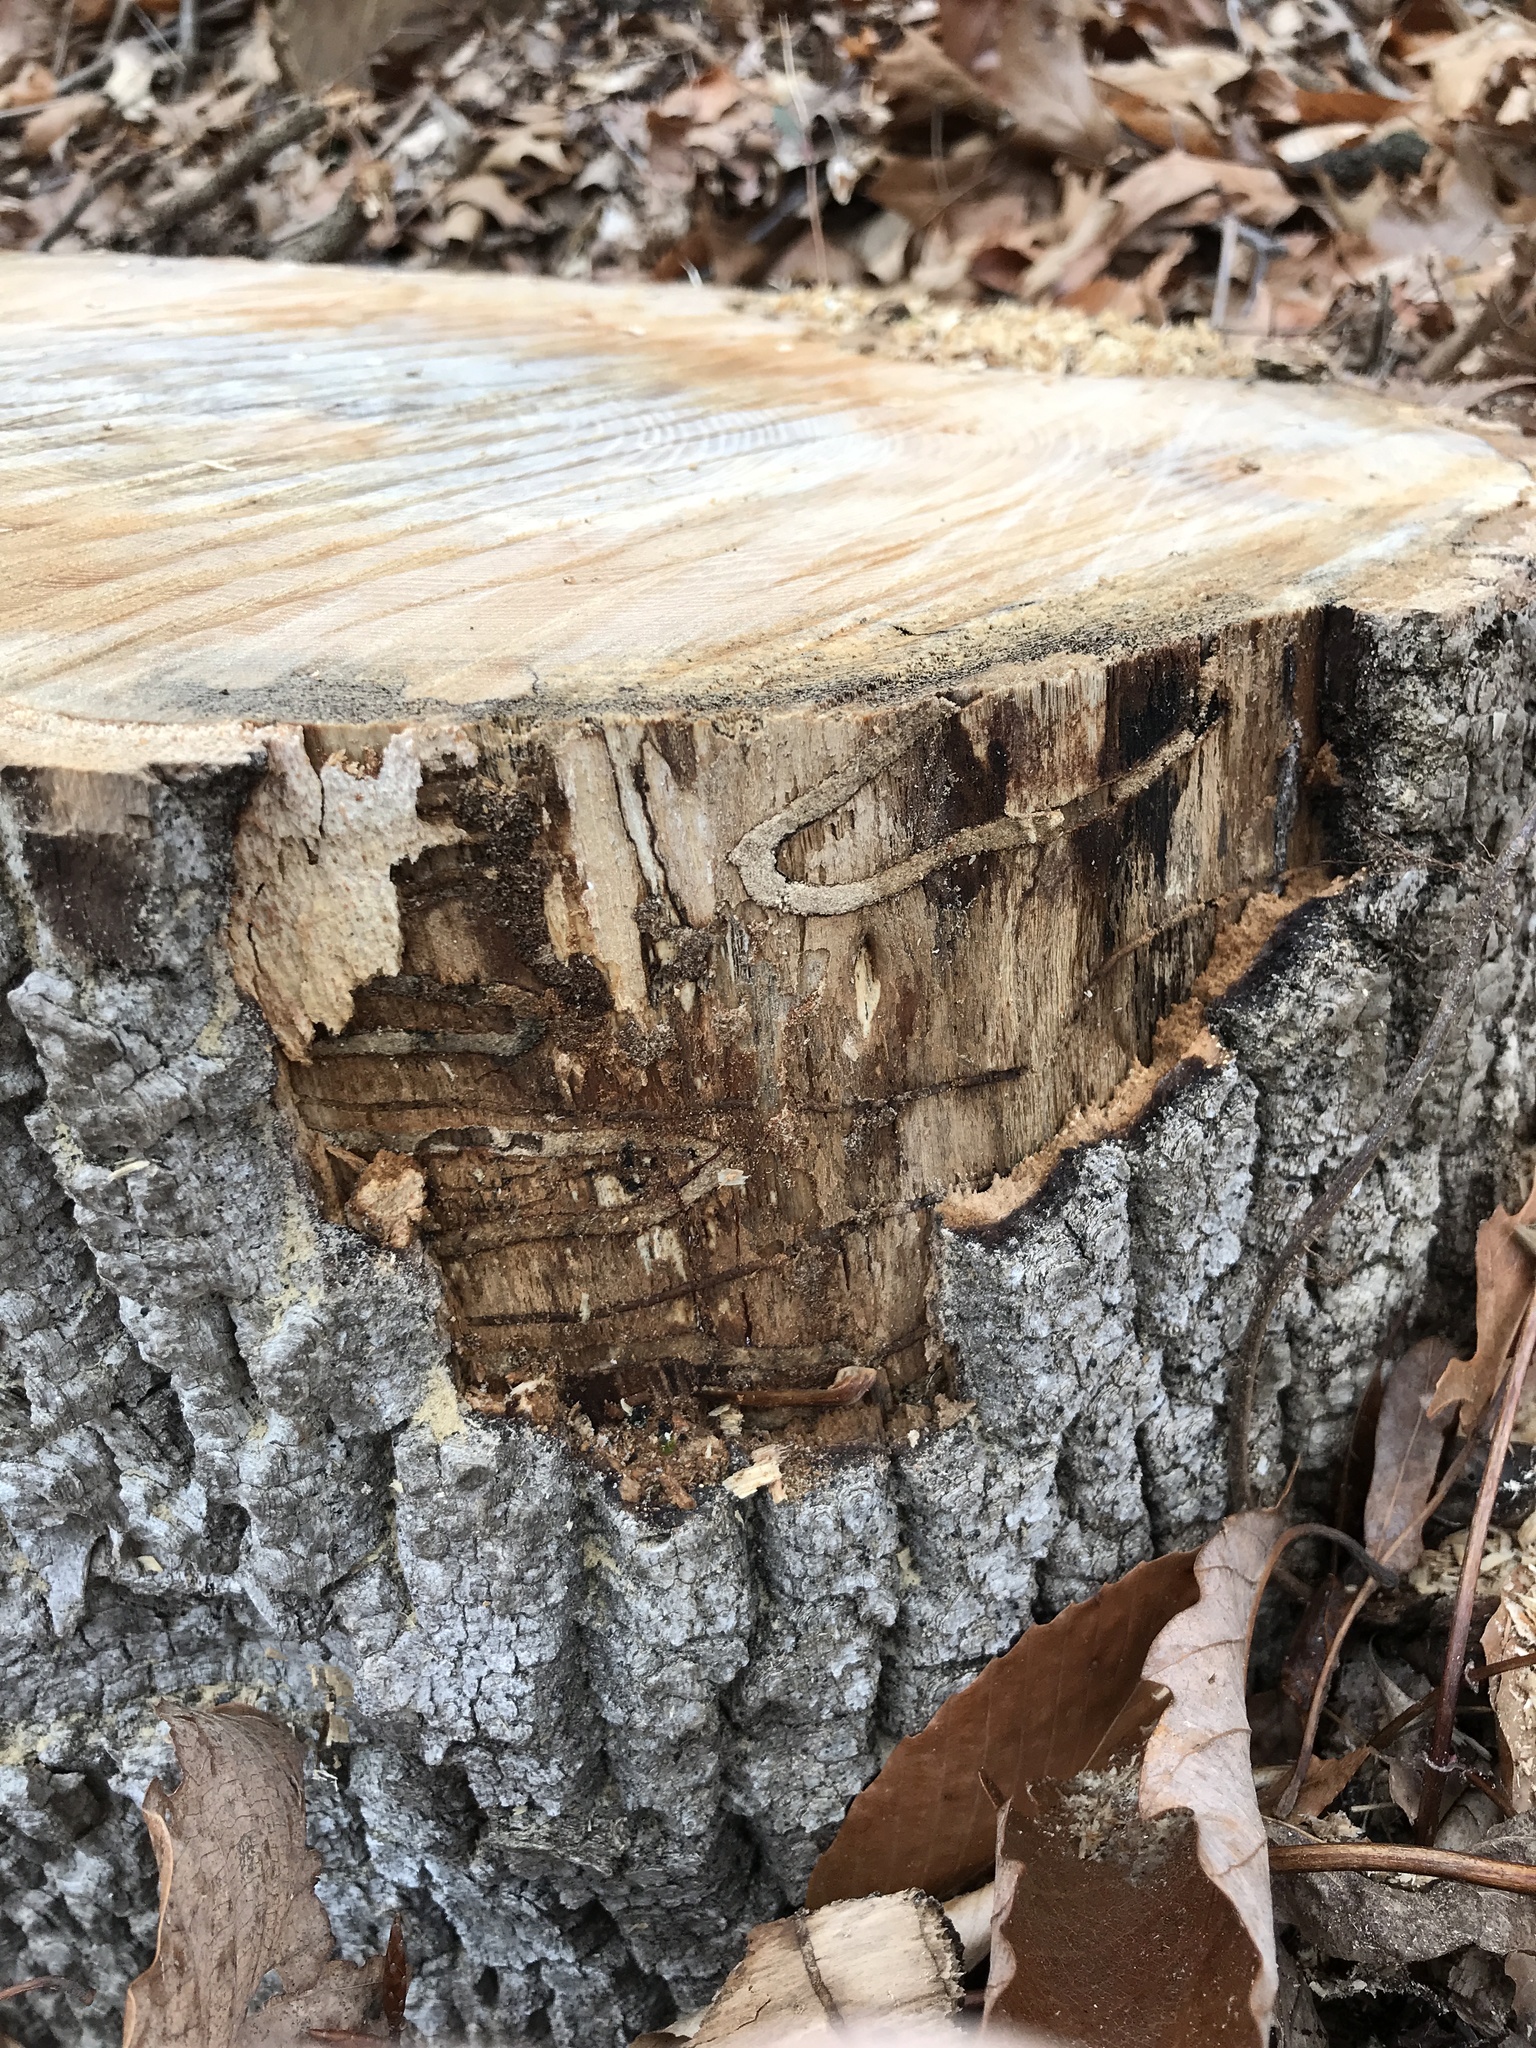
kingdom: Animalia
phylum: Arthropoda
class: Insecta
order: Coleoptera
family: Buprestidae
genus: Agrilus
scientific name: Agrilus planipennis
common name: Emerald ash borer
